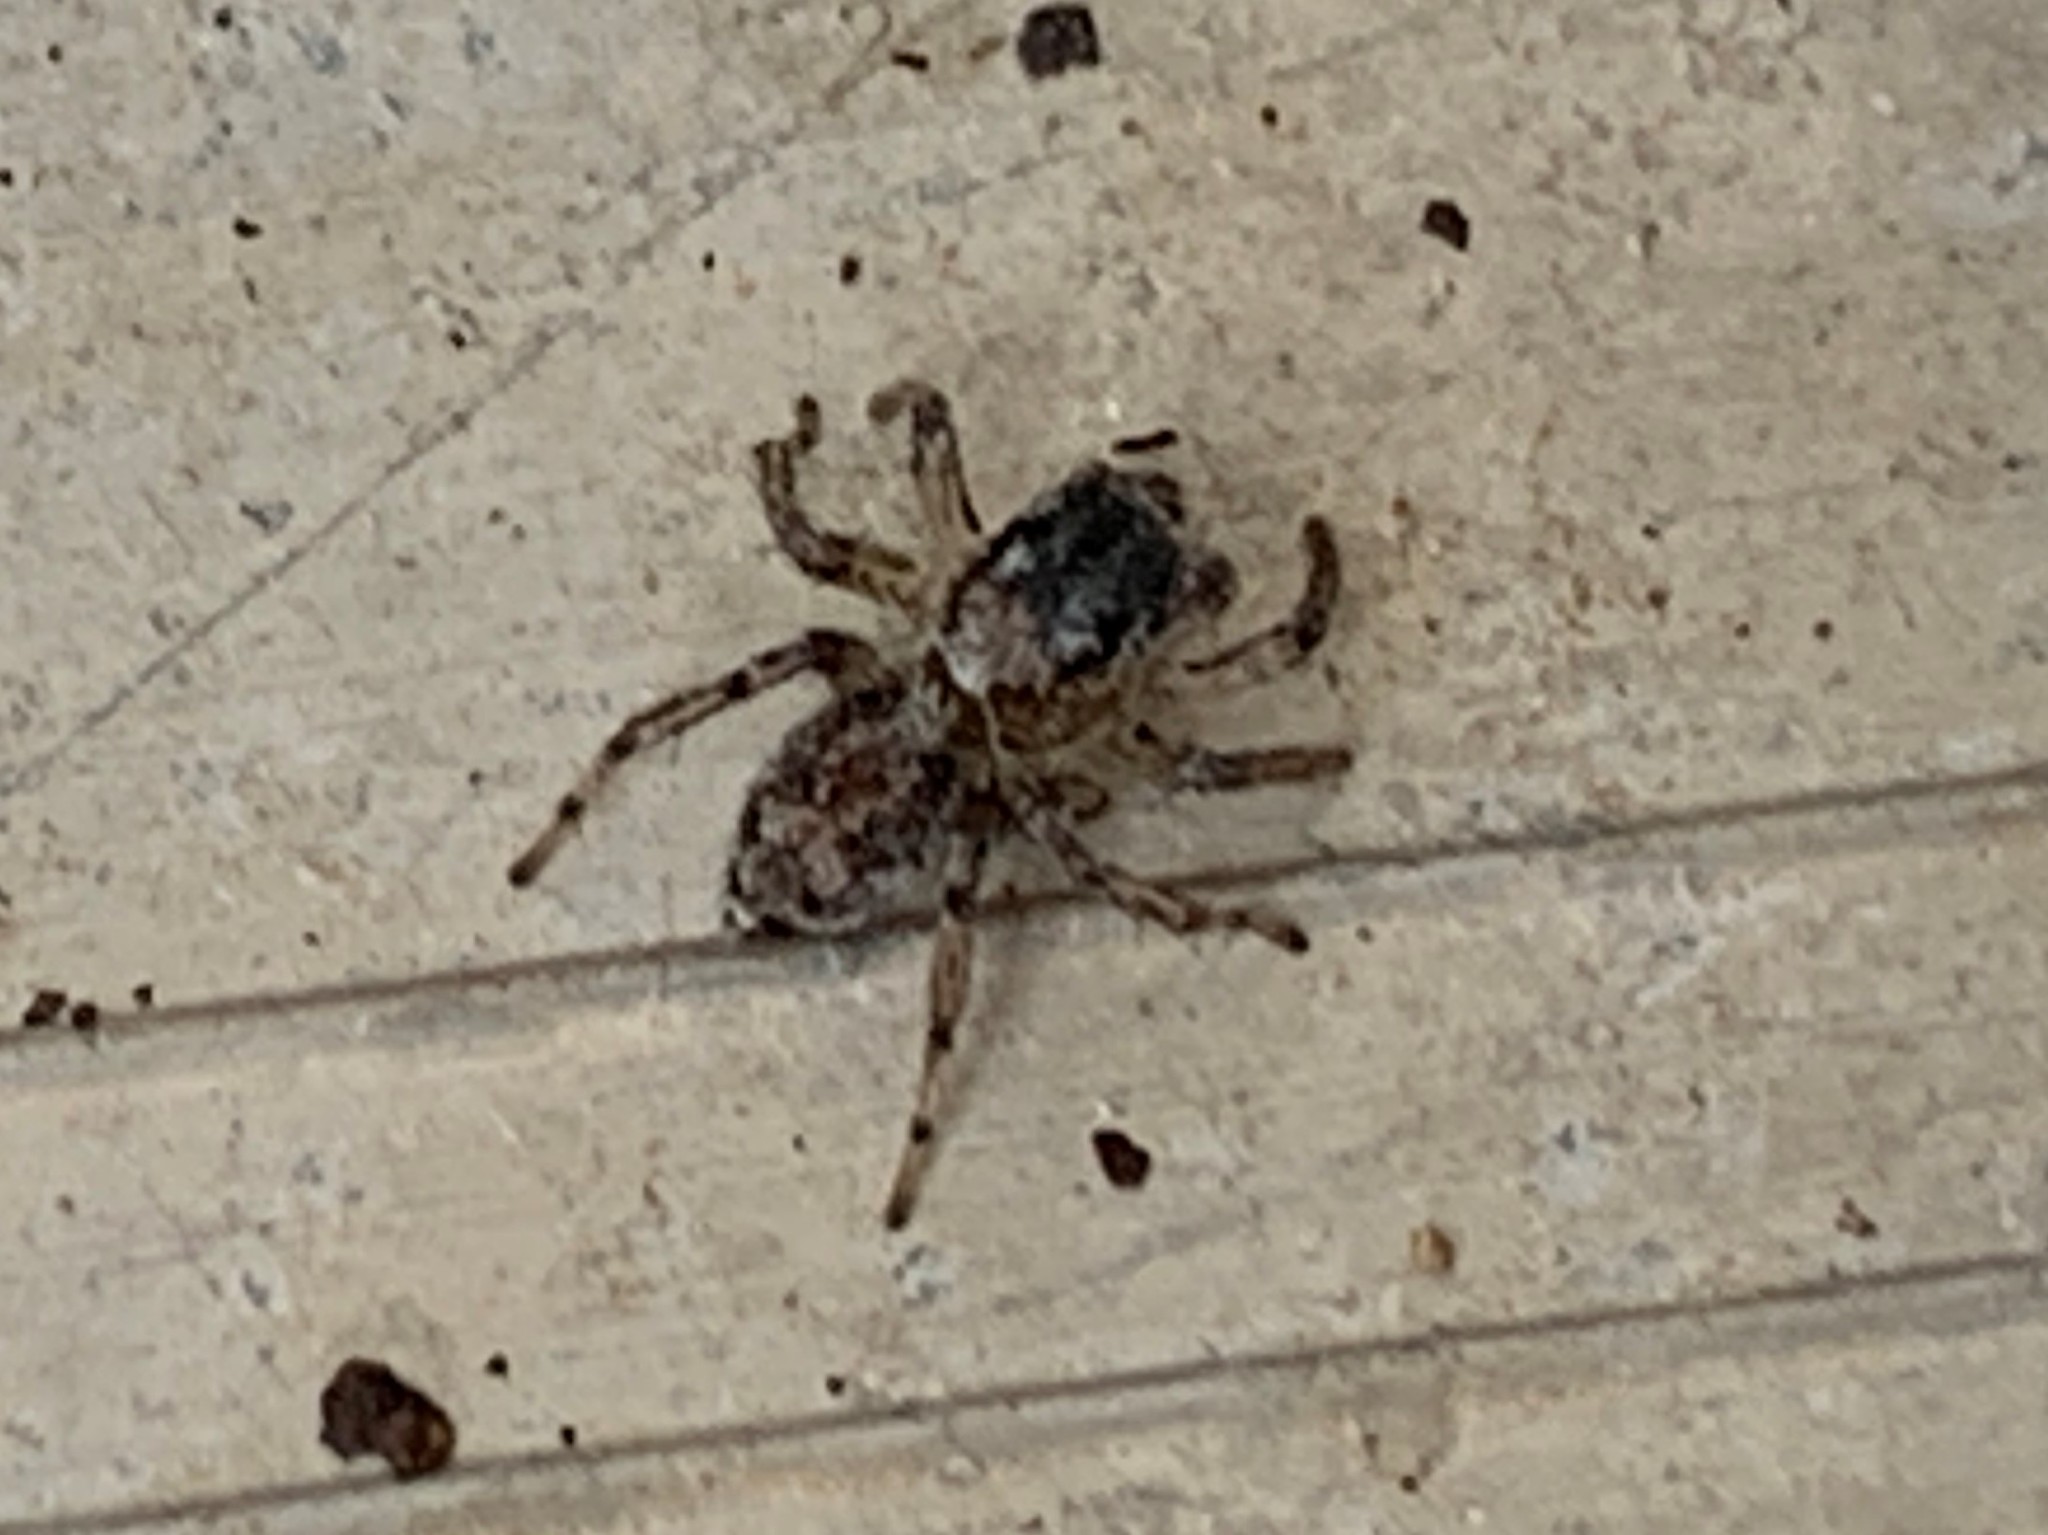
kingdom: Animalia
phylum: Arthropoda
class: Arachnida
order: Araneae
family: Salticidae
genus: Naphrys
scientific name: Naphrys pulex
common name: Flea jumping spider
